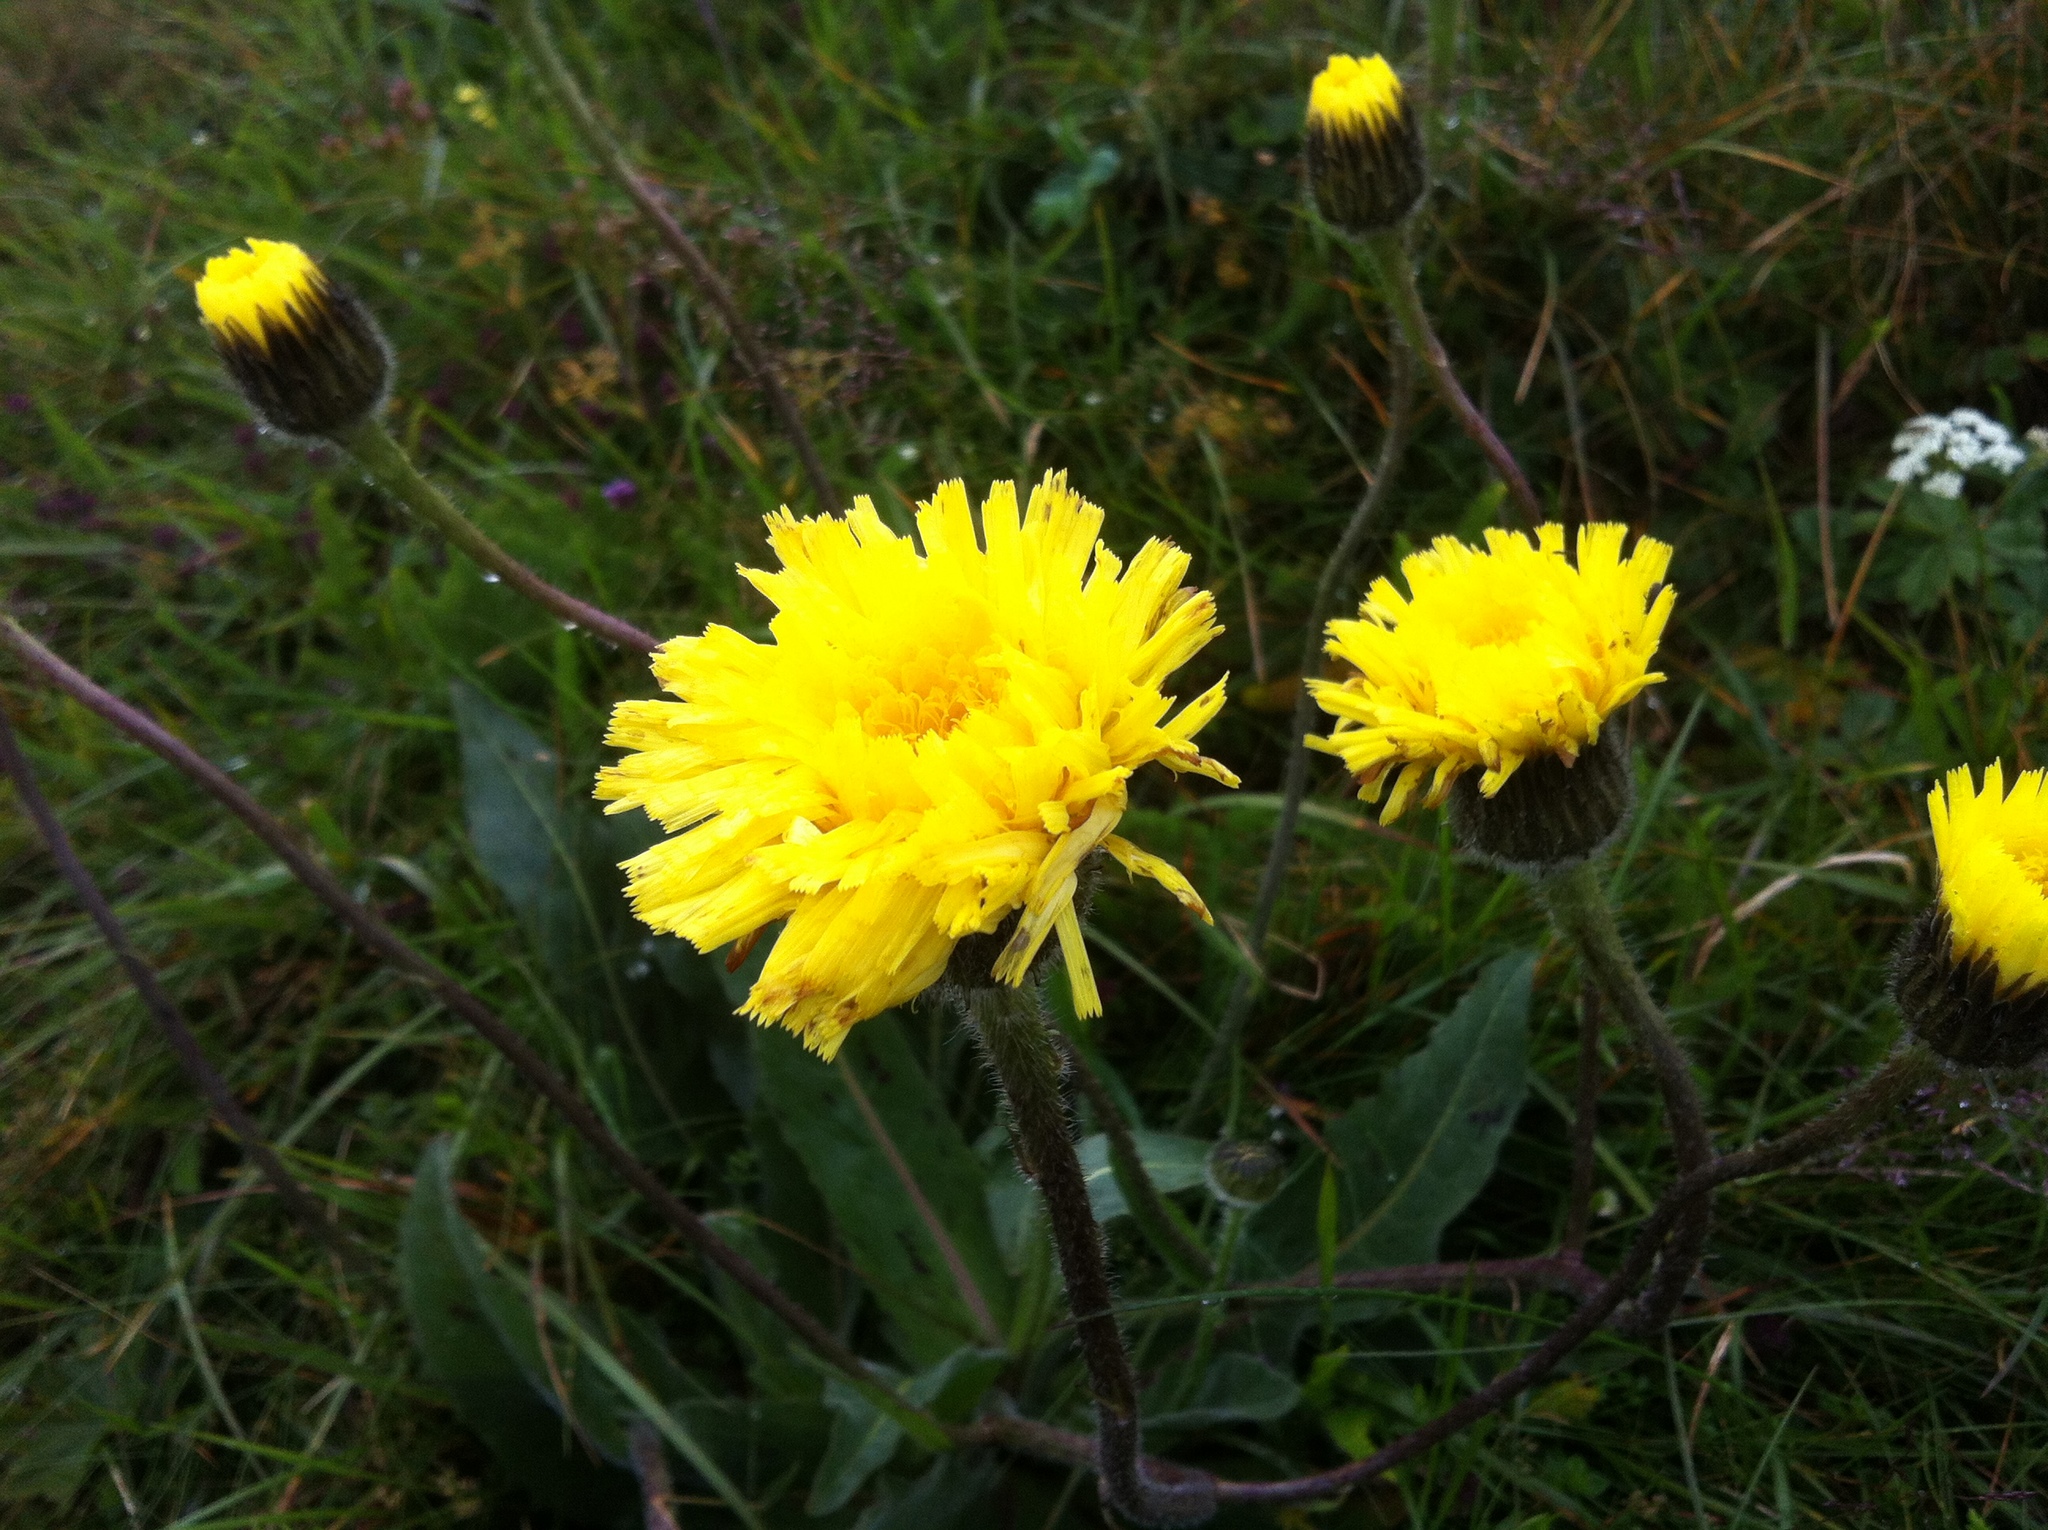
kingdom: Plantae
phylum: Tracheophyta
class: Magnoliopsida
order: Asterales
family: Asteraceae
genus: Pilosella
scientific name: Pilosella officinarum
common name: Mouse-ear hawkweed
